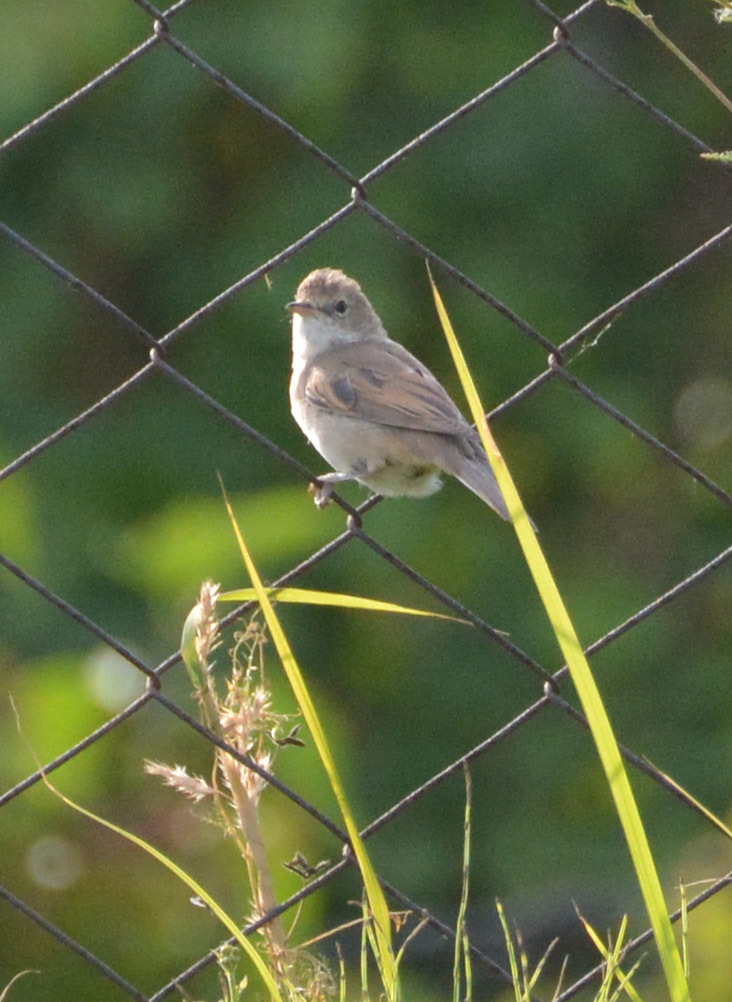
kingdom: Animalia
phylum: Chordata
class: Aves
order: Passeriformes
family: Sylviidae
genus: Sylvia
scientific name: Sylvia communis
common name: Common whitethroat
